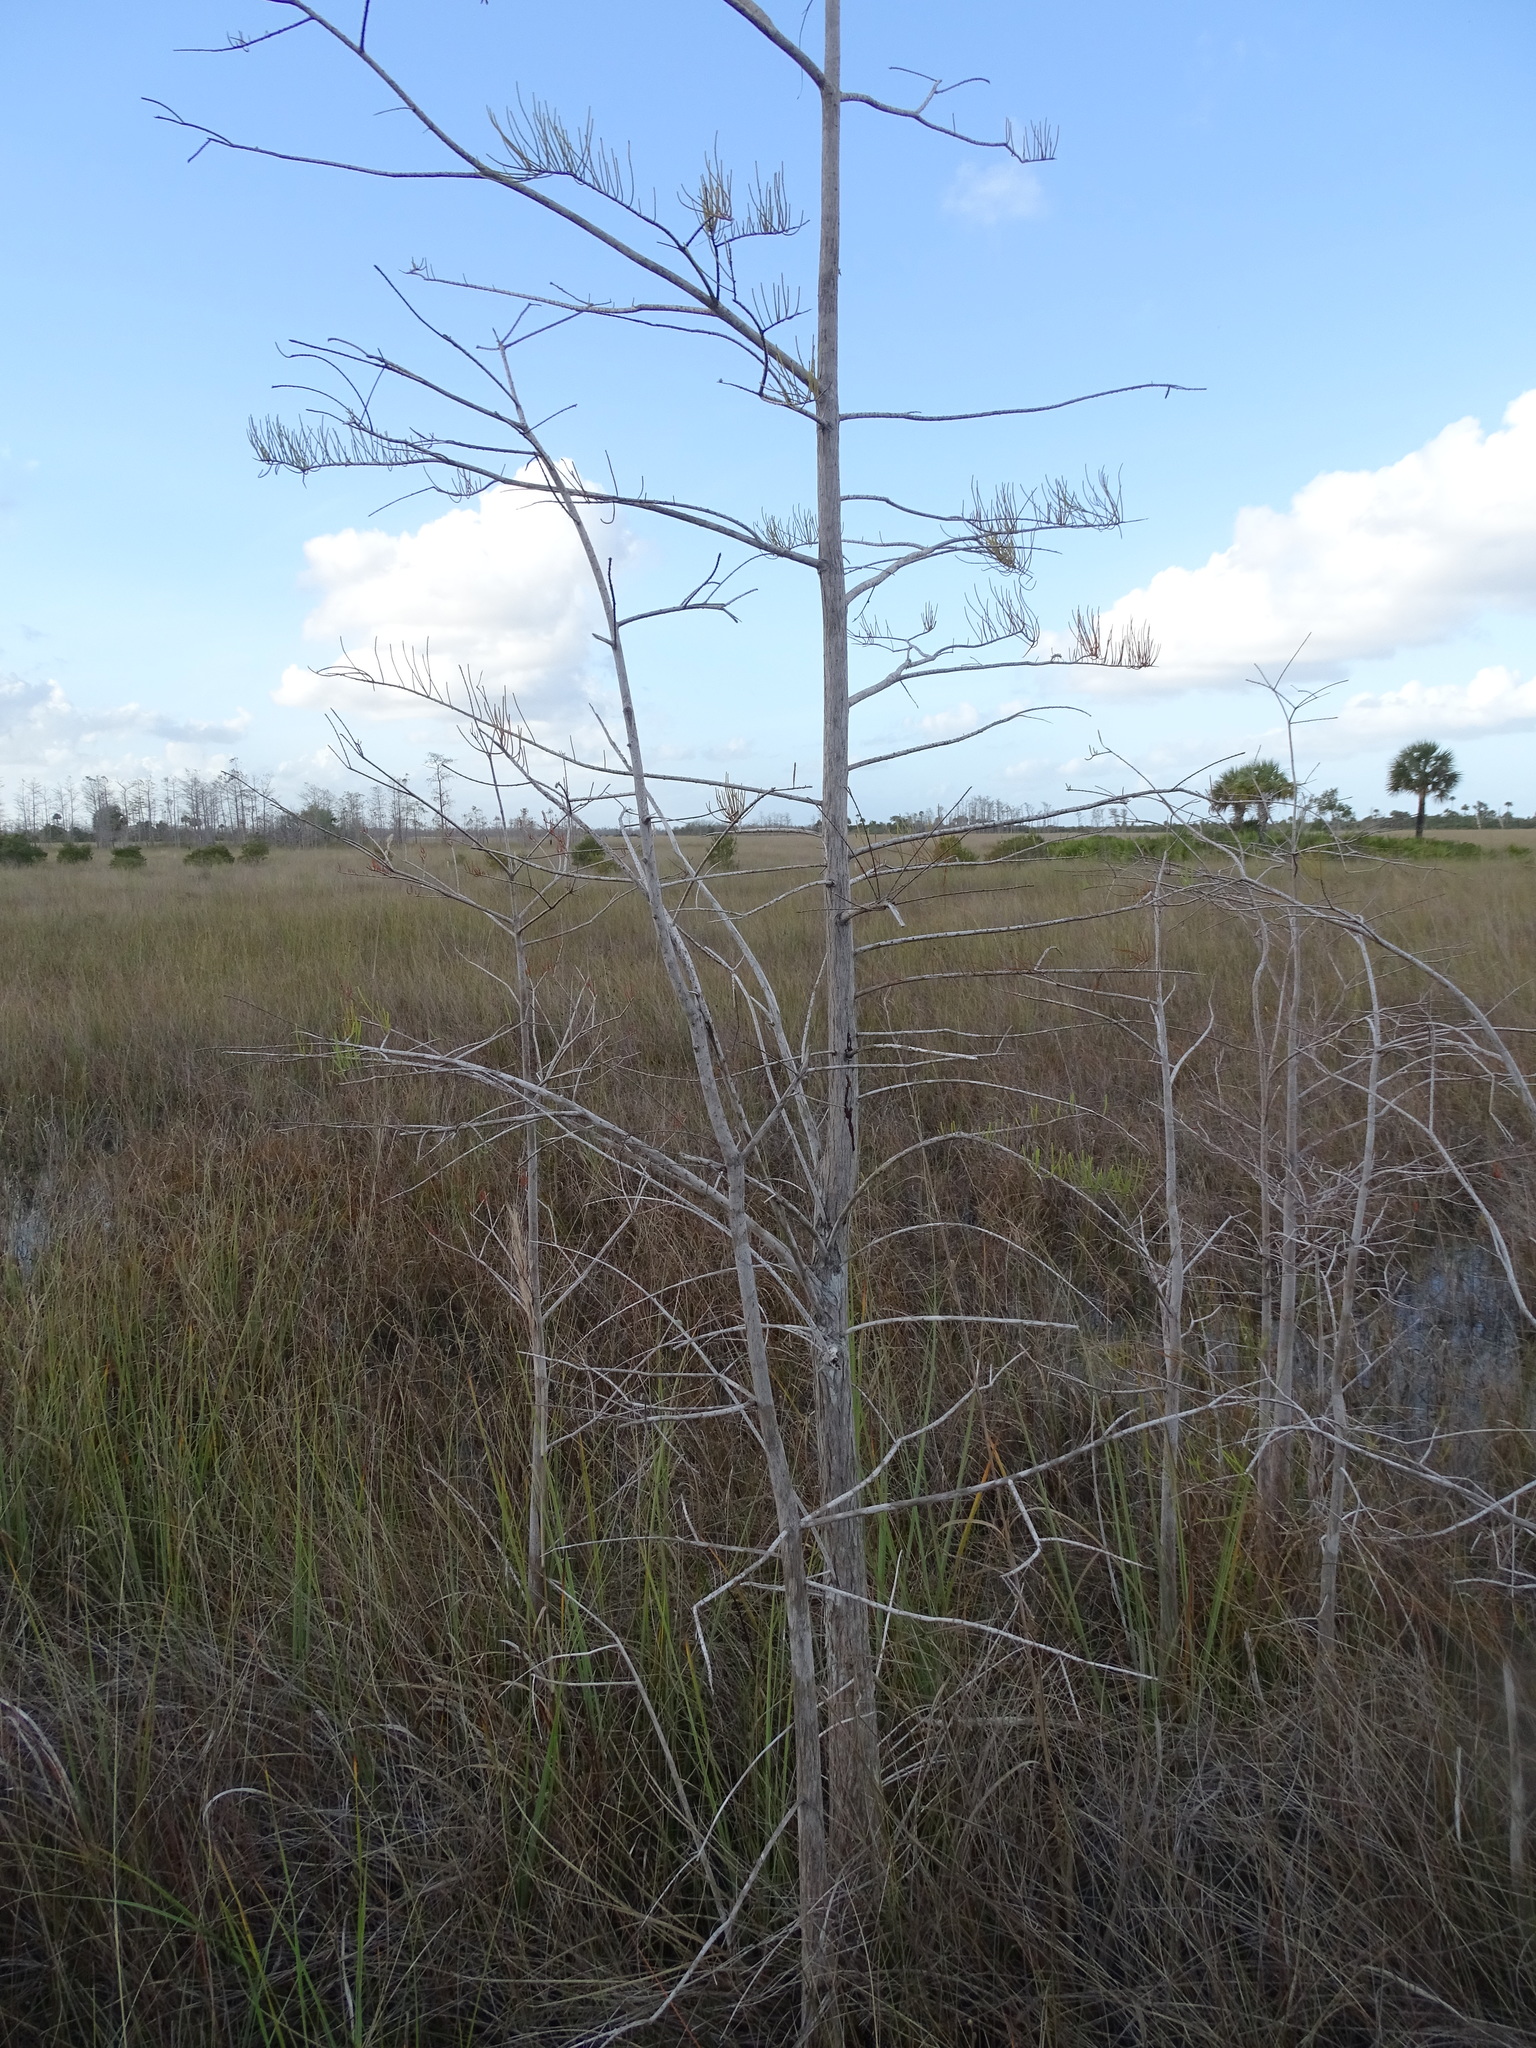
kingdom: Plantae
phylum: Tracheophyta
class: Pinopsida
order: Pinales
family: Cupressaceae
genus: Taxodium
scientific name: Taxodium distichum
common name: Bald cypress
